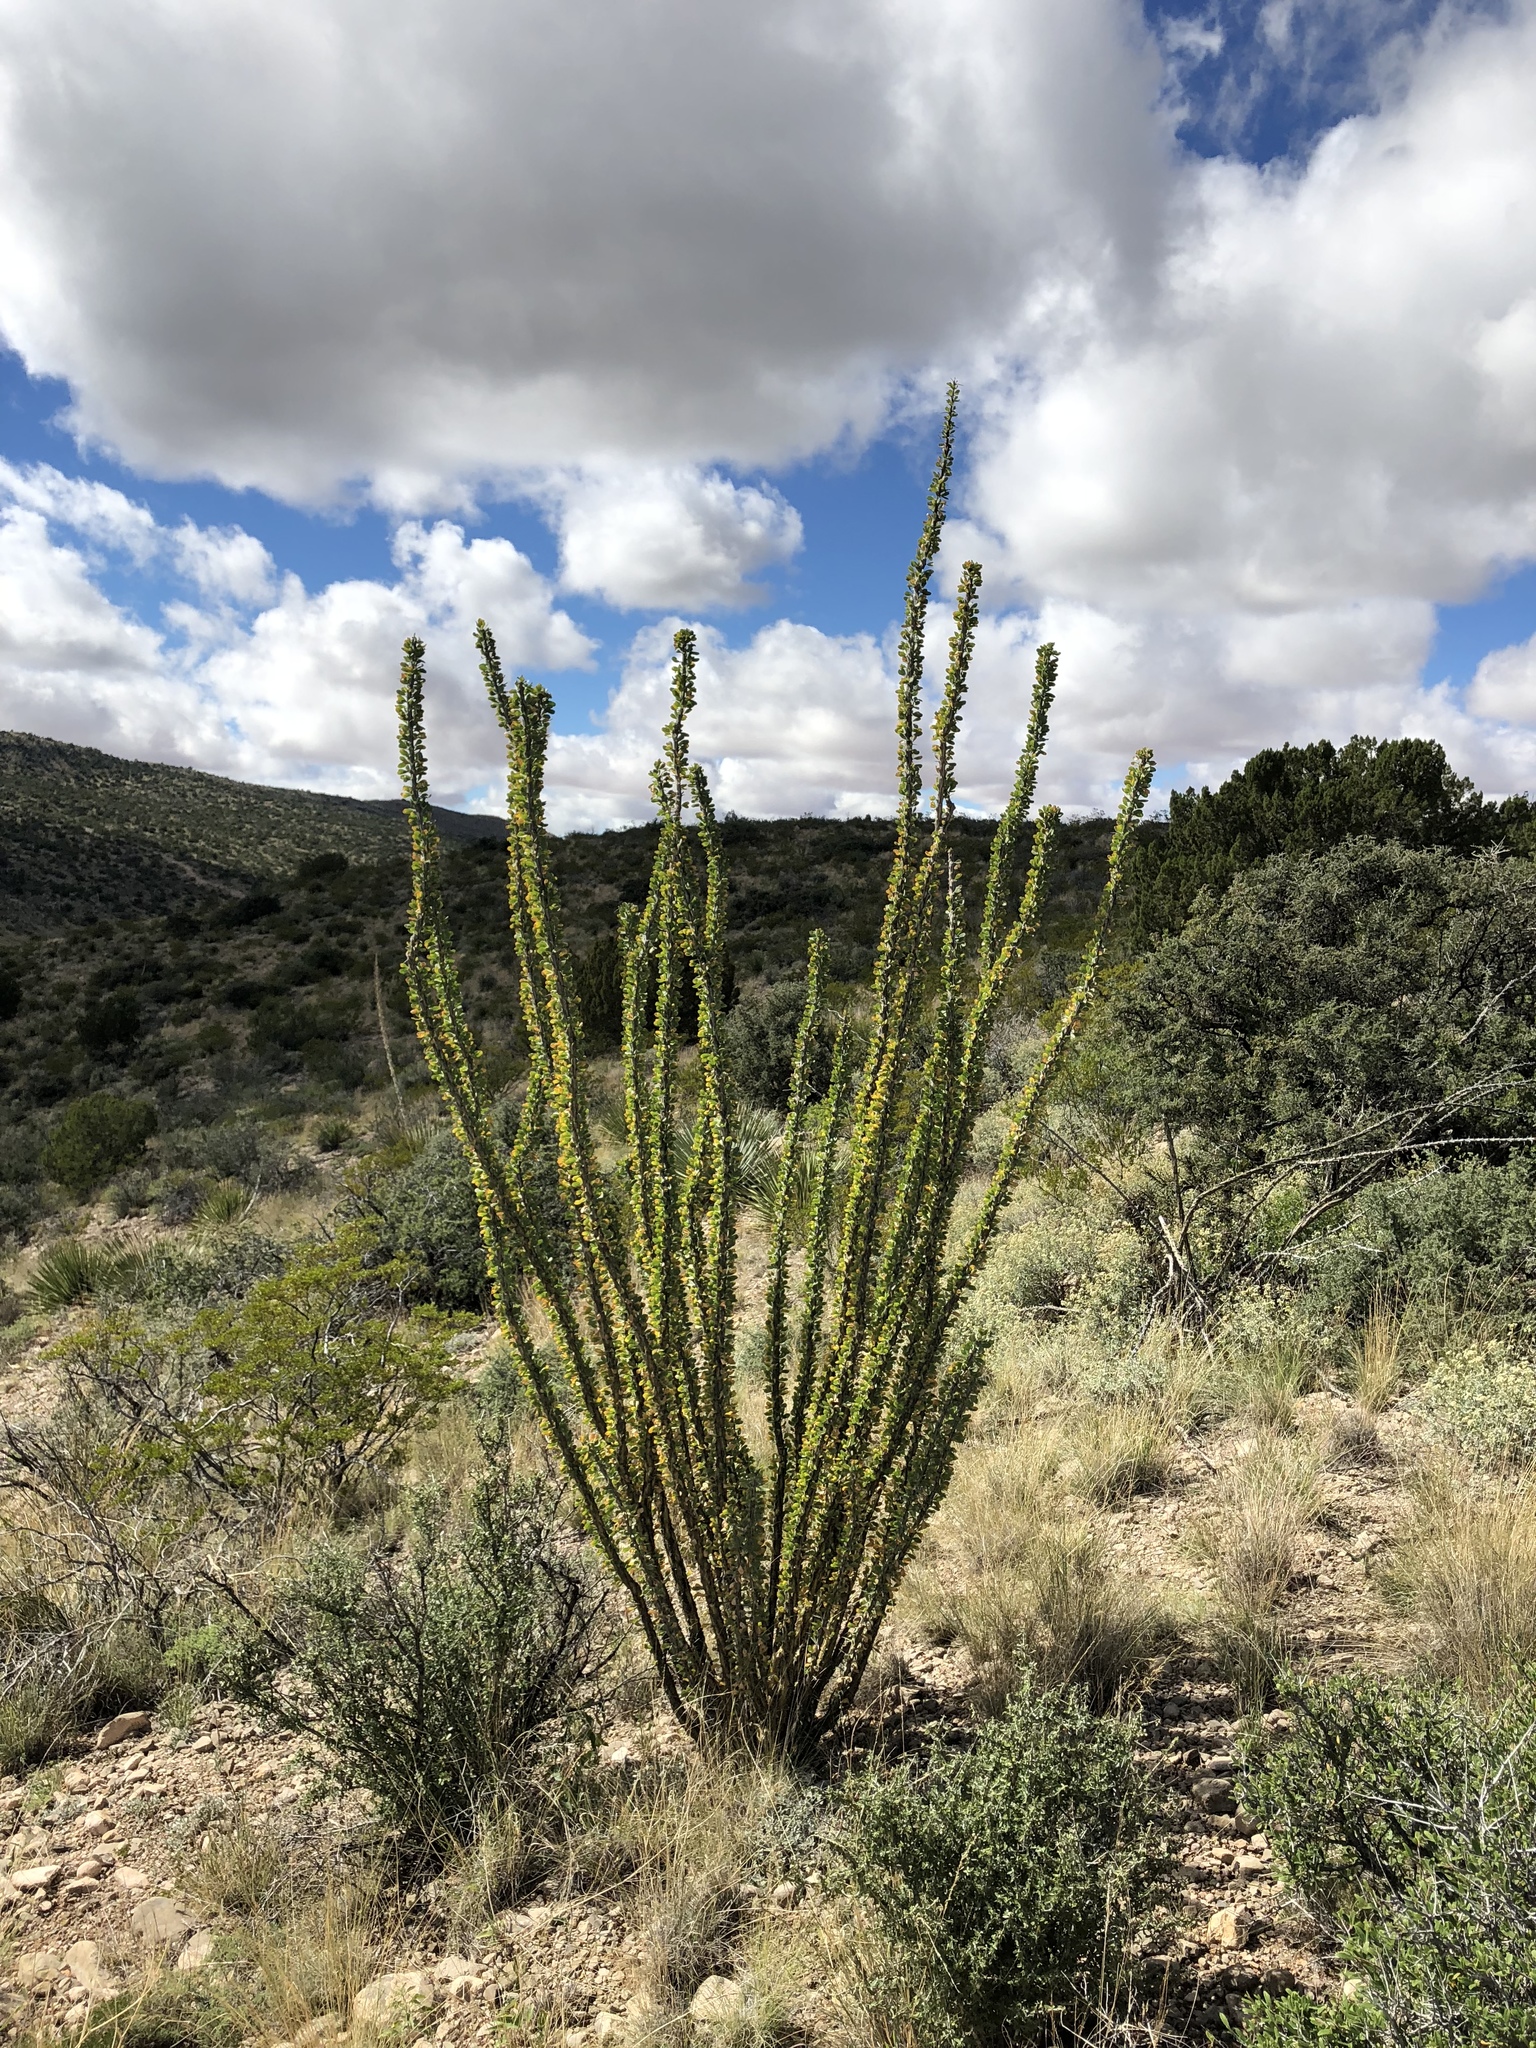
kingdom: Plantae
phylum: Tracheophyta
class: Magnoliopsida
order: Ericales
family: Fouquieriaceae
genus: Fouquieria
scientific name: Fouquieria splendens
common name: Vine-cactus
